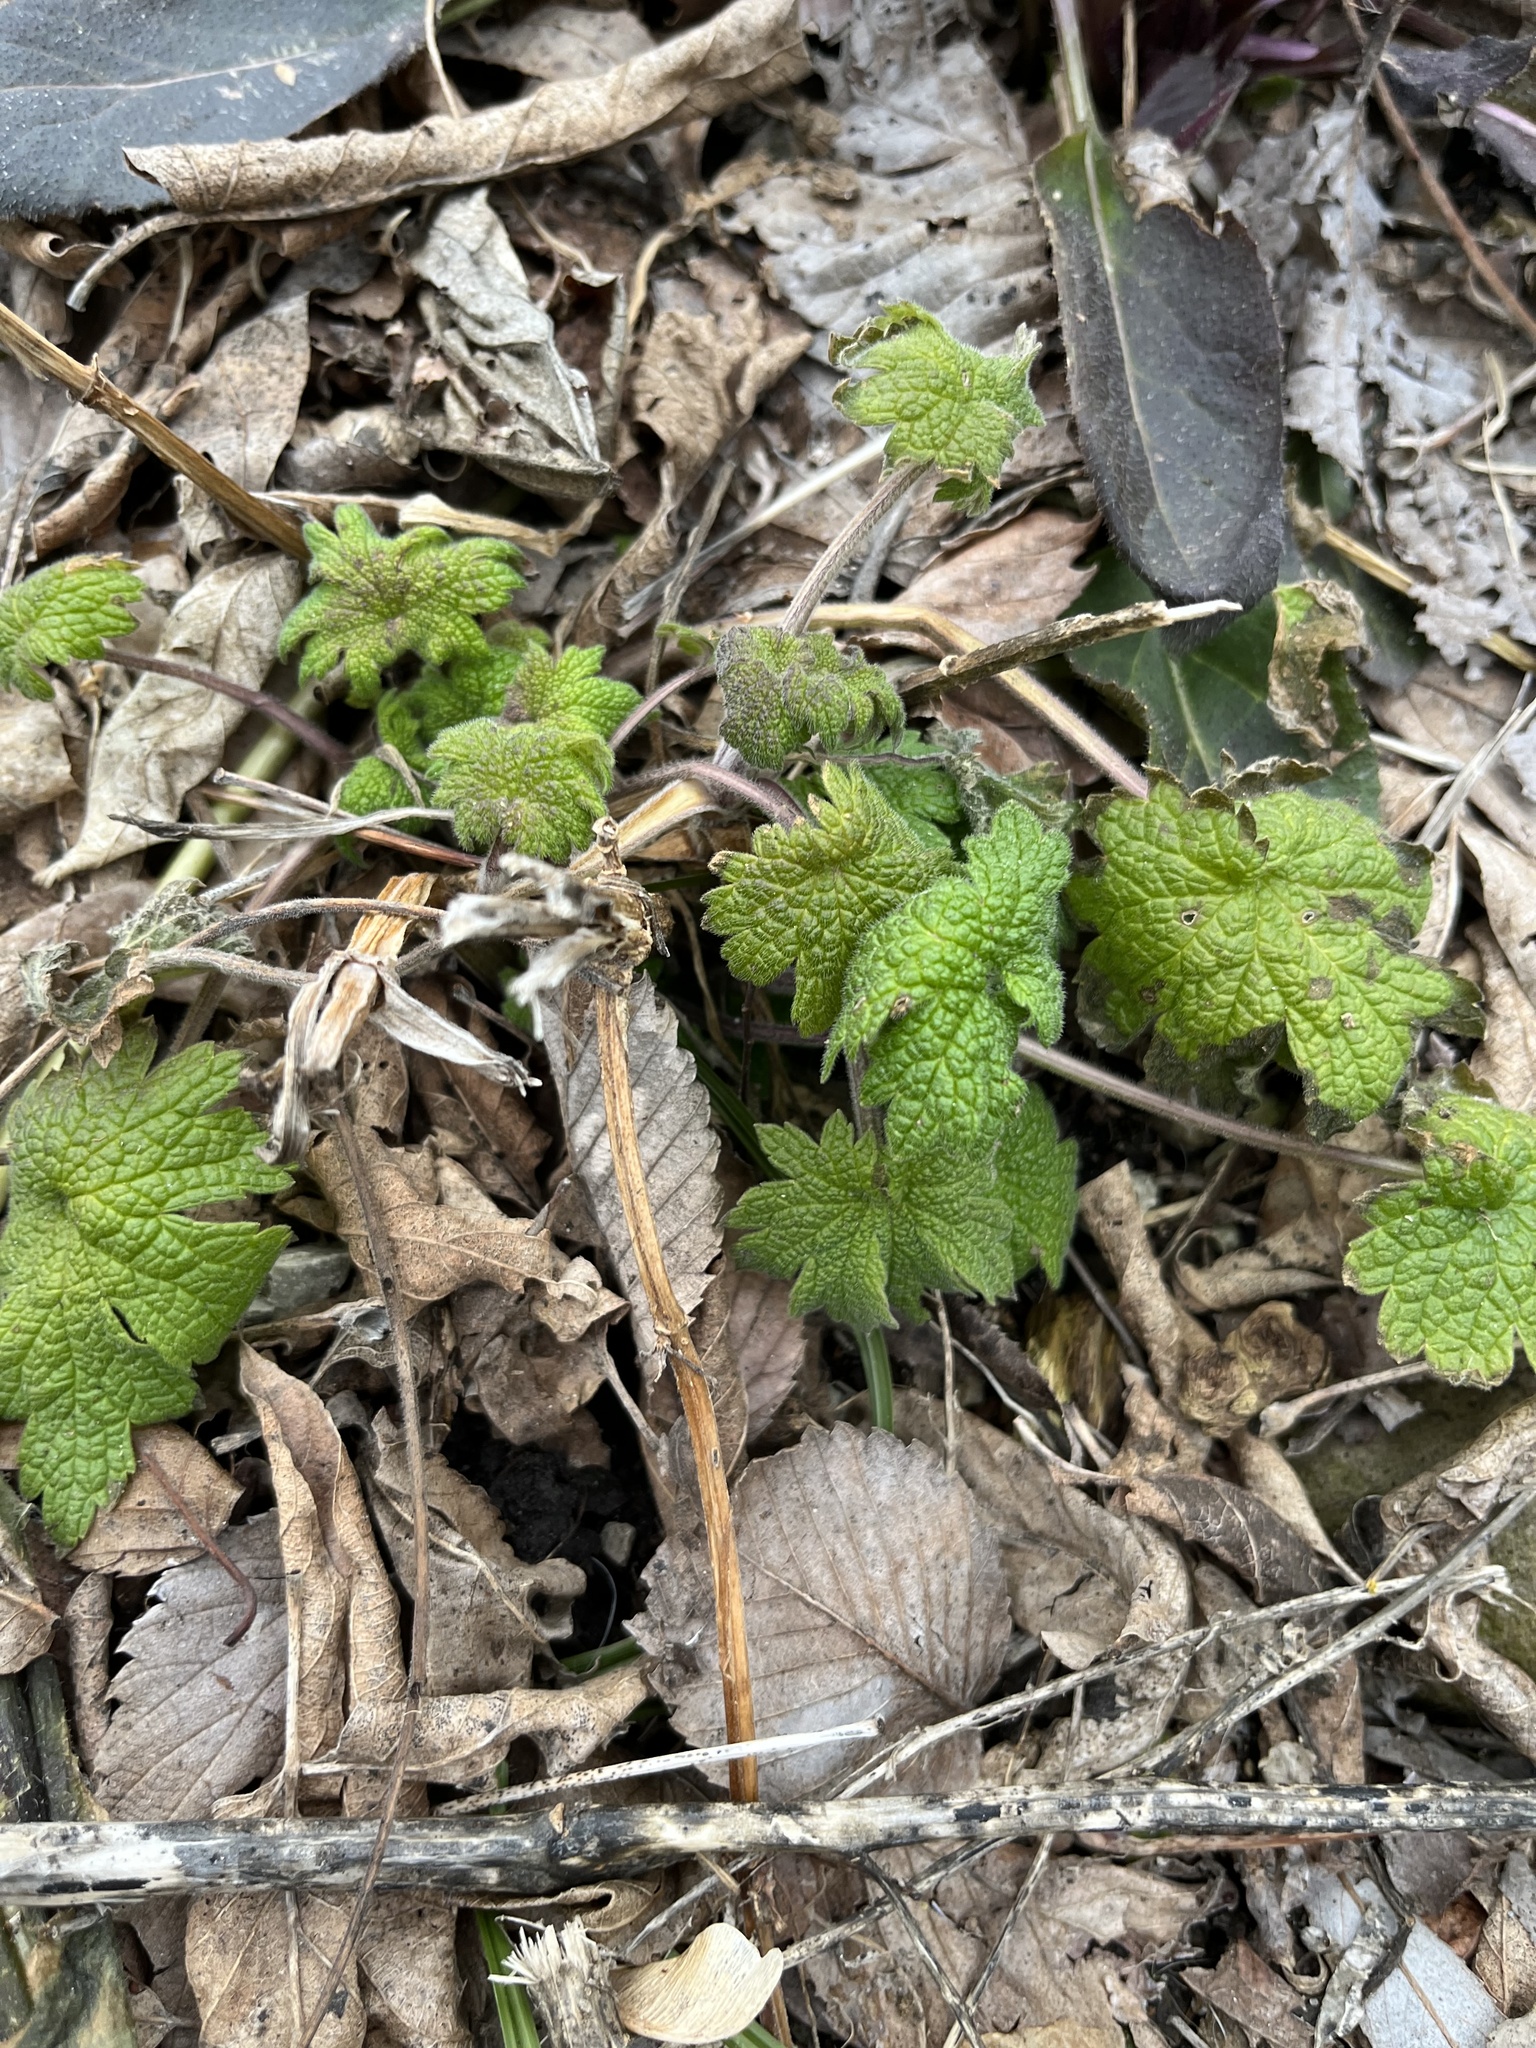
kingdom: Plantae
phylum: Tracheophyta
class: Magnoliopsida
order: Lamiales
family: Lamiaceae
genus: Leonurus
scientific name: Leonurus cardiaca
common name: Motherwort
